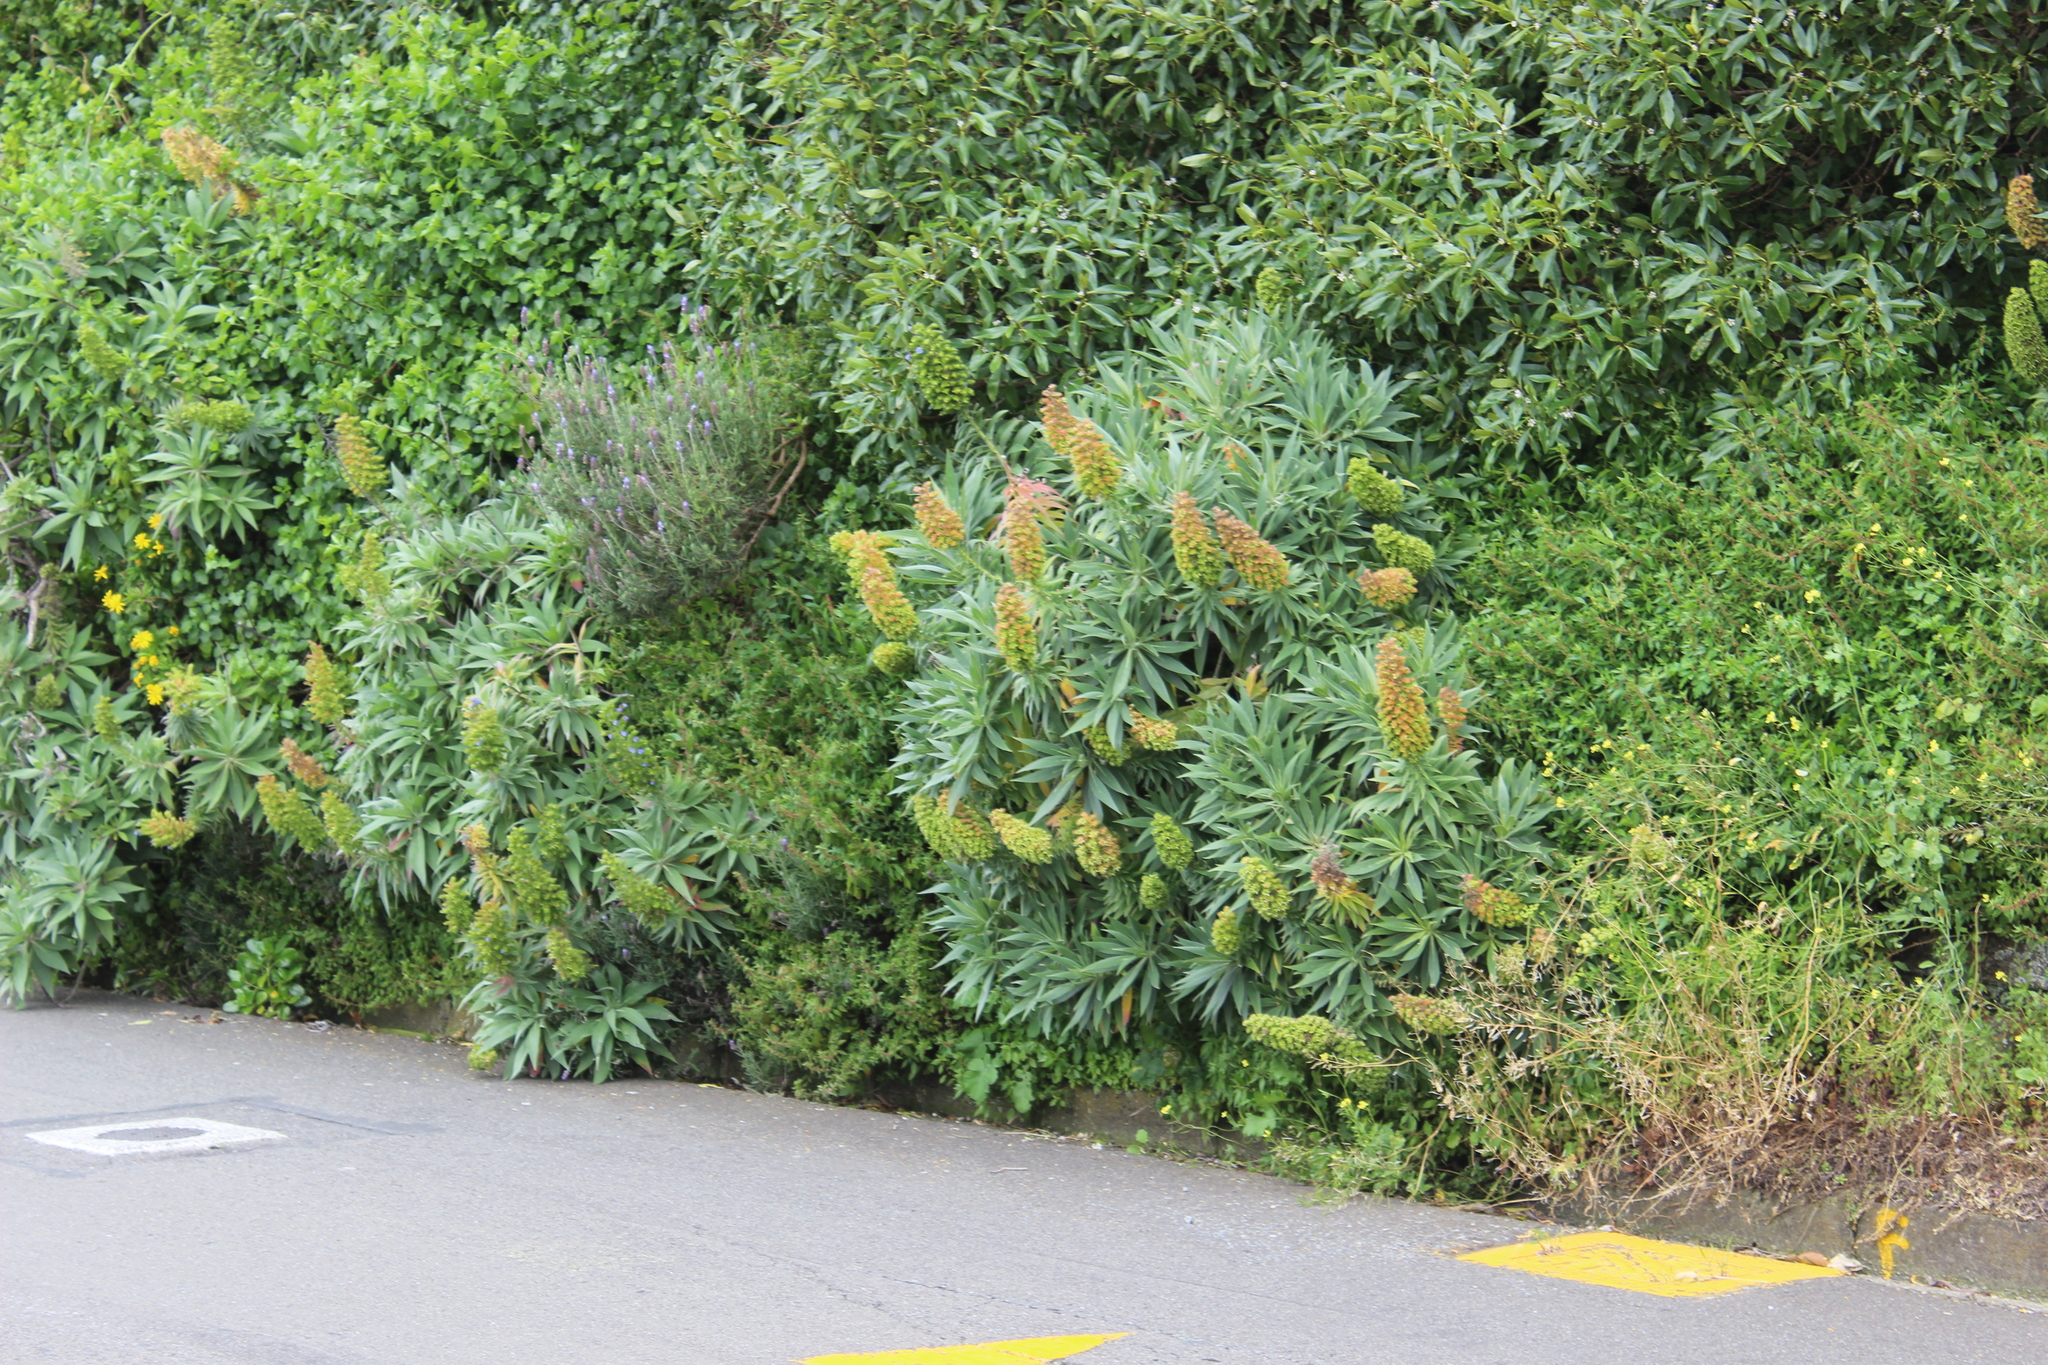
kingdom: Plantae
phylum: Tracheophyta
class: Magnoliopsida
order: Boraginales
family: Boraginaceae
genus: Echium
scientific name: Echium candicans
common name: Pride of madeira
